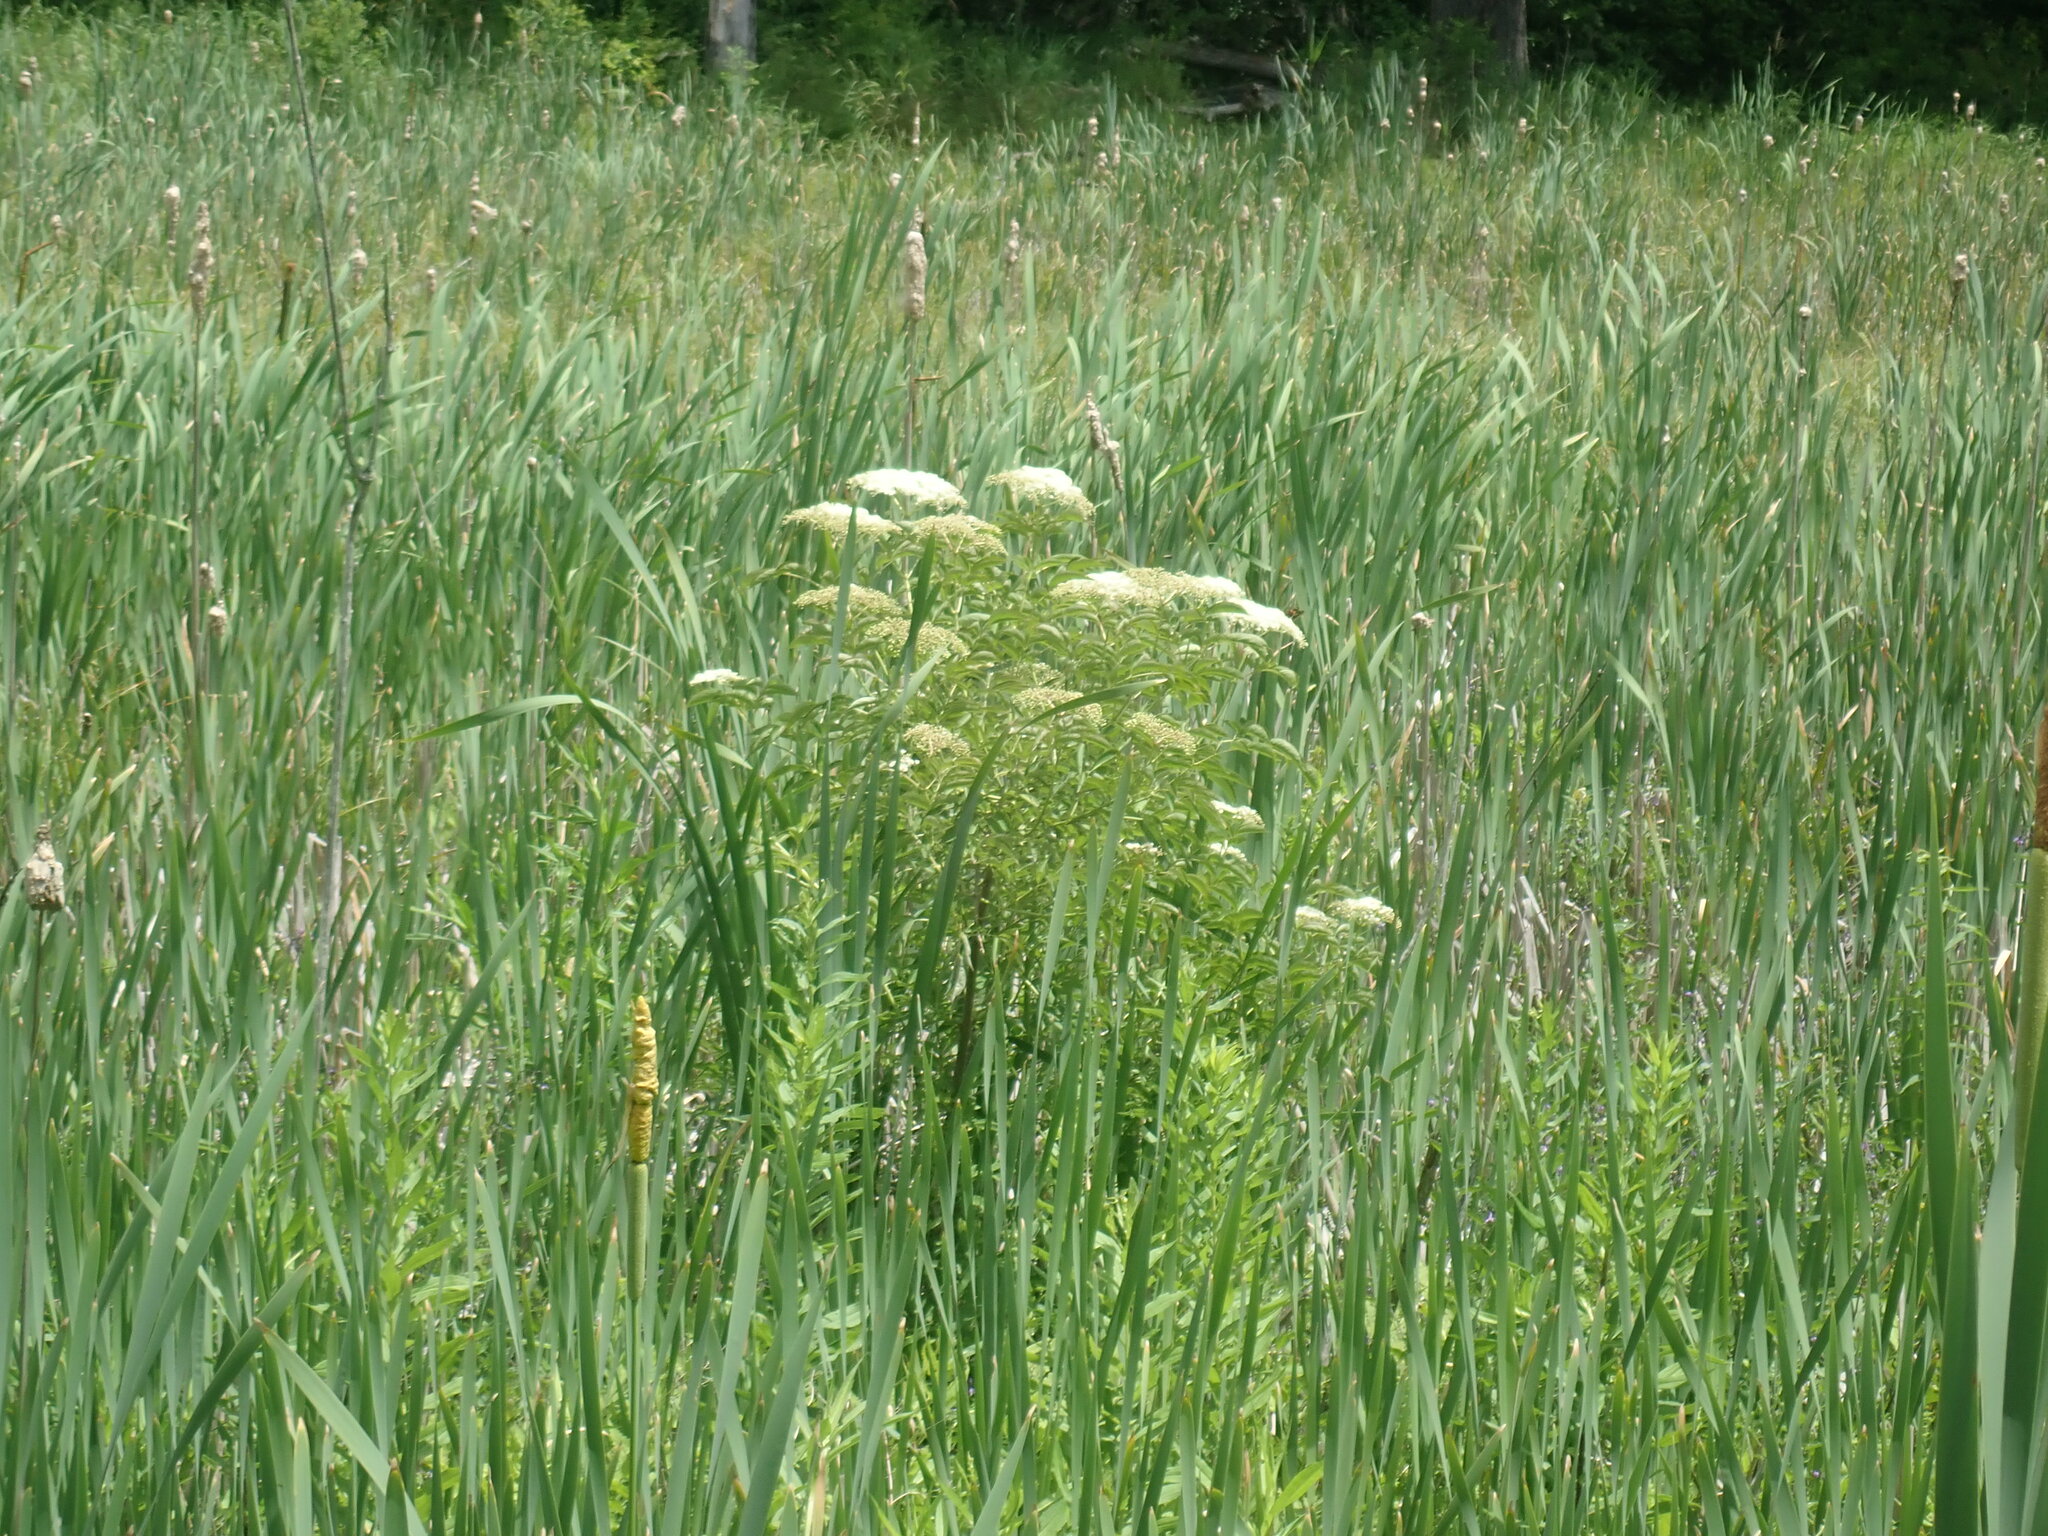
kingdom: Plantae
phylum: Tracheophyta
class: Magnoliopsida
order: Dipsacales
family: Viburnaceae
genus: Sambucus
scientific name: Sambucus canadensis
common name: American elder
